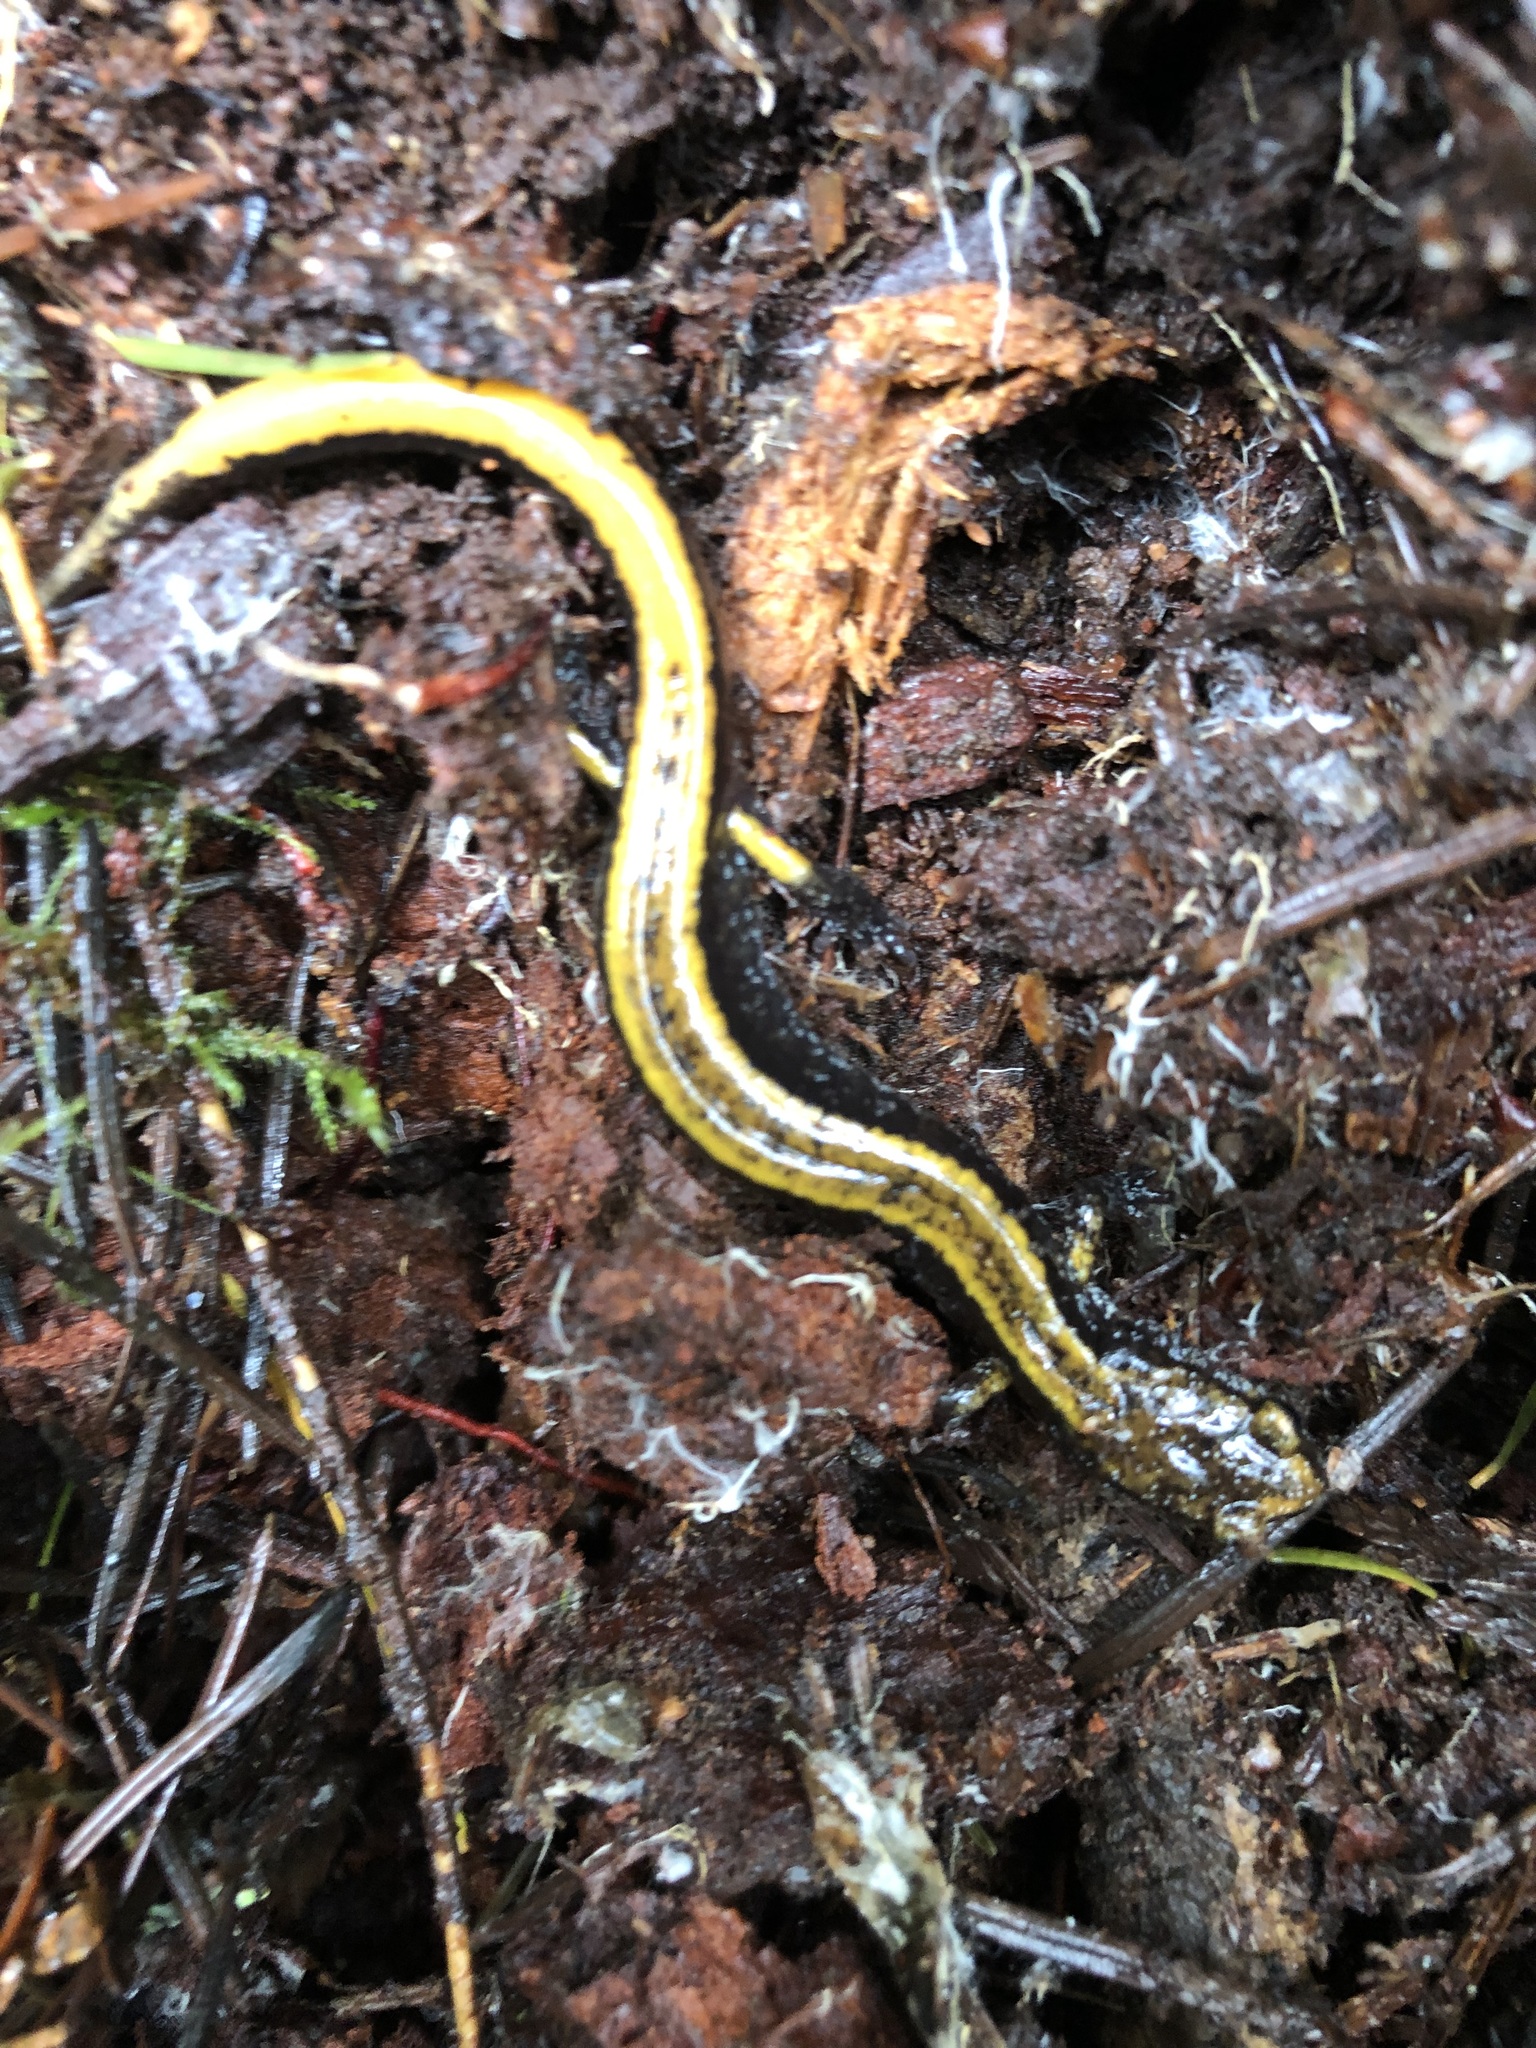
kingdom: Animalia
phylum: Chordata
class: Amphibia
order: Caudata
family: Plethodontidae
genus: Plethodon
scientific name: Plethodon vehiculum
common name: Western red-backed salamander
